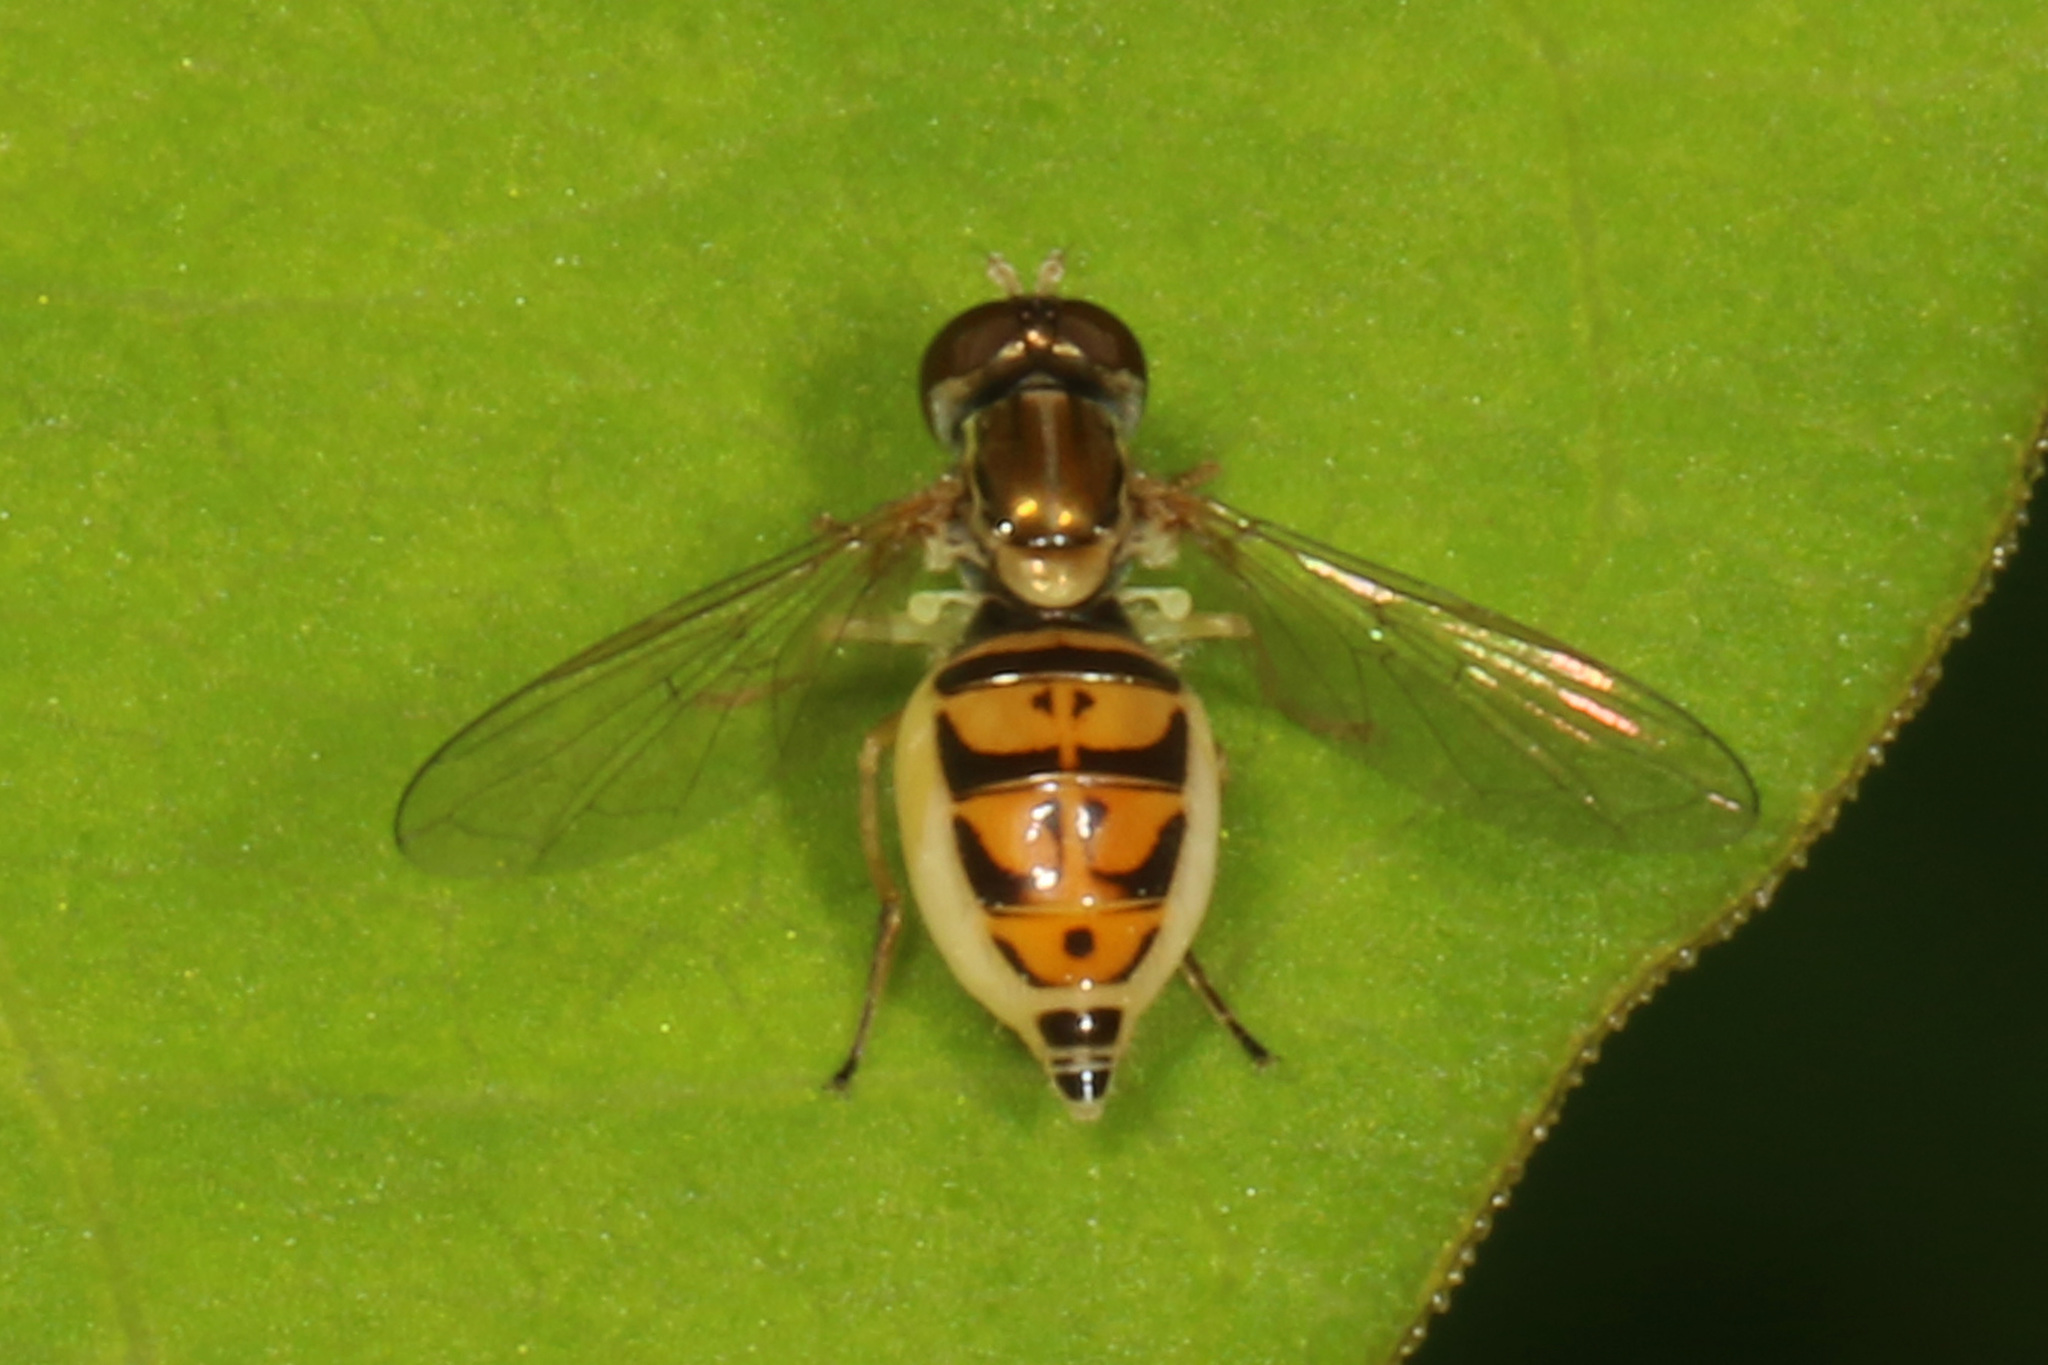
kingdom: Animalia
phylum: Arthropoda
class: Insecta
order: Diptera
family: Syrphidae
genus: Toxomerus
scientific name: Toxomerus marginatus
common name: Syrphid fly
